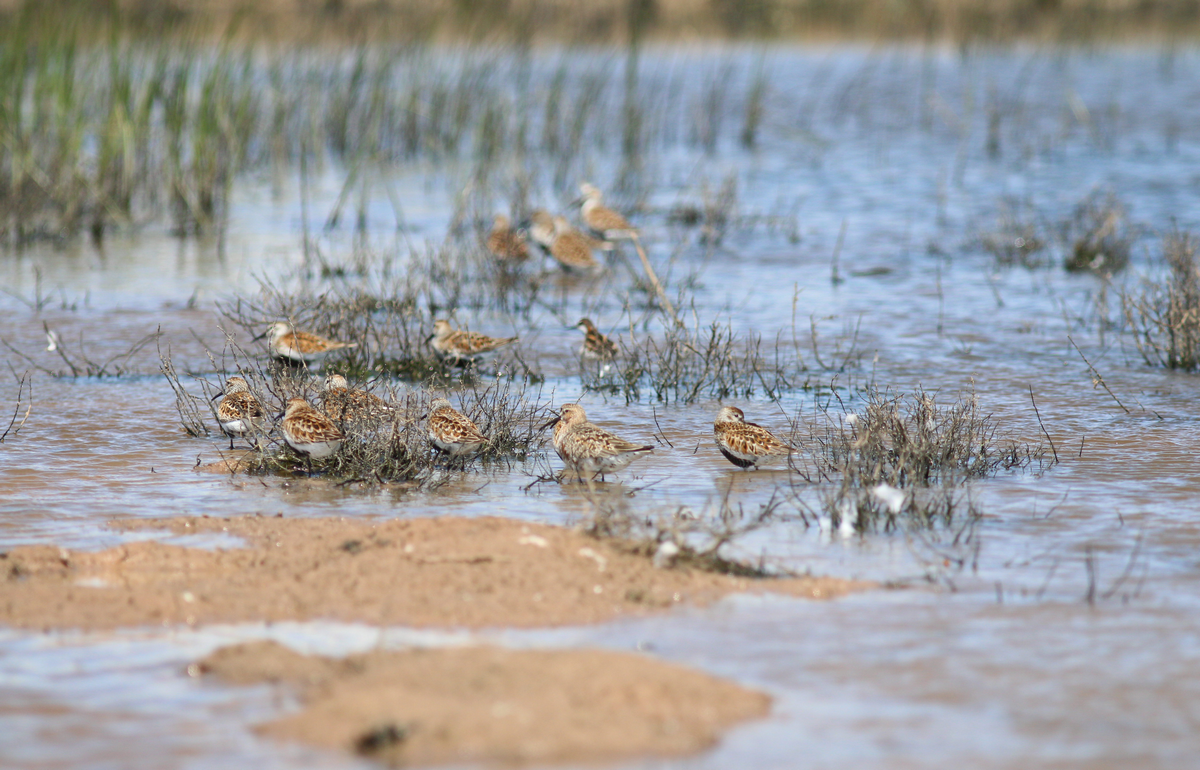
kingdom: Animalia
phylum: Chordata
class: Aves
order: Charadriiformes
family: Scolopacidae
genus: Calidris
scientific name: Calidris alpina
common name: Dunlin
